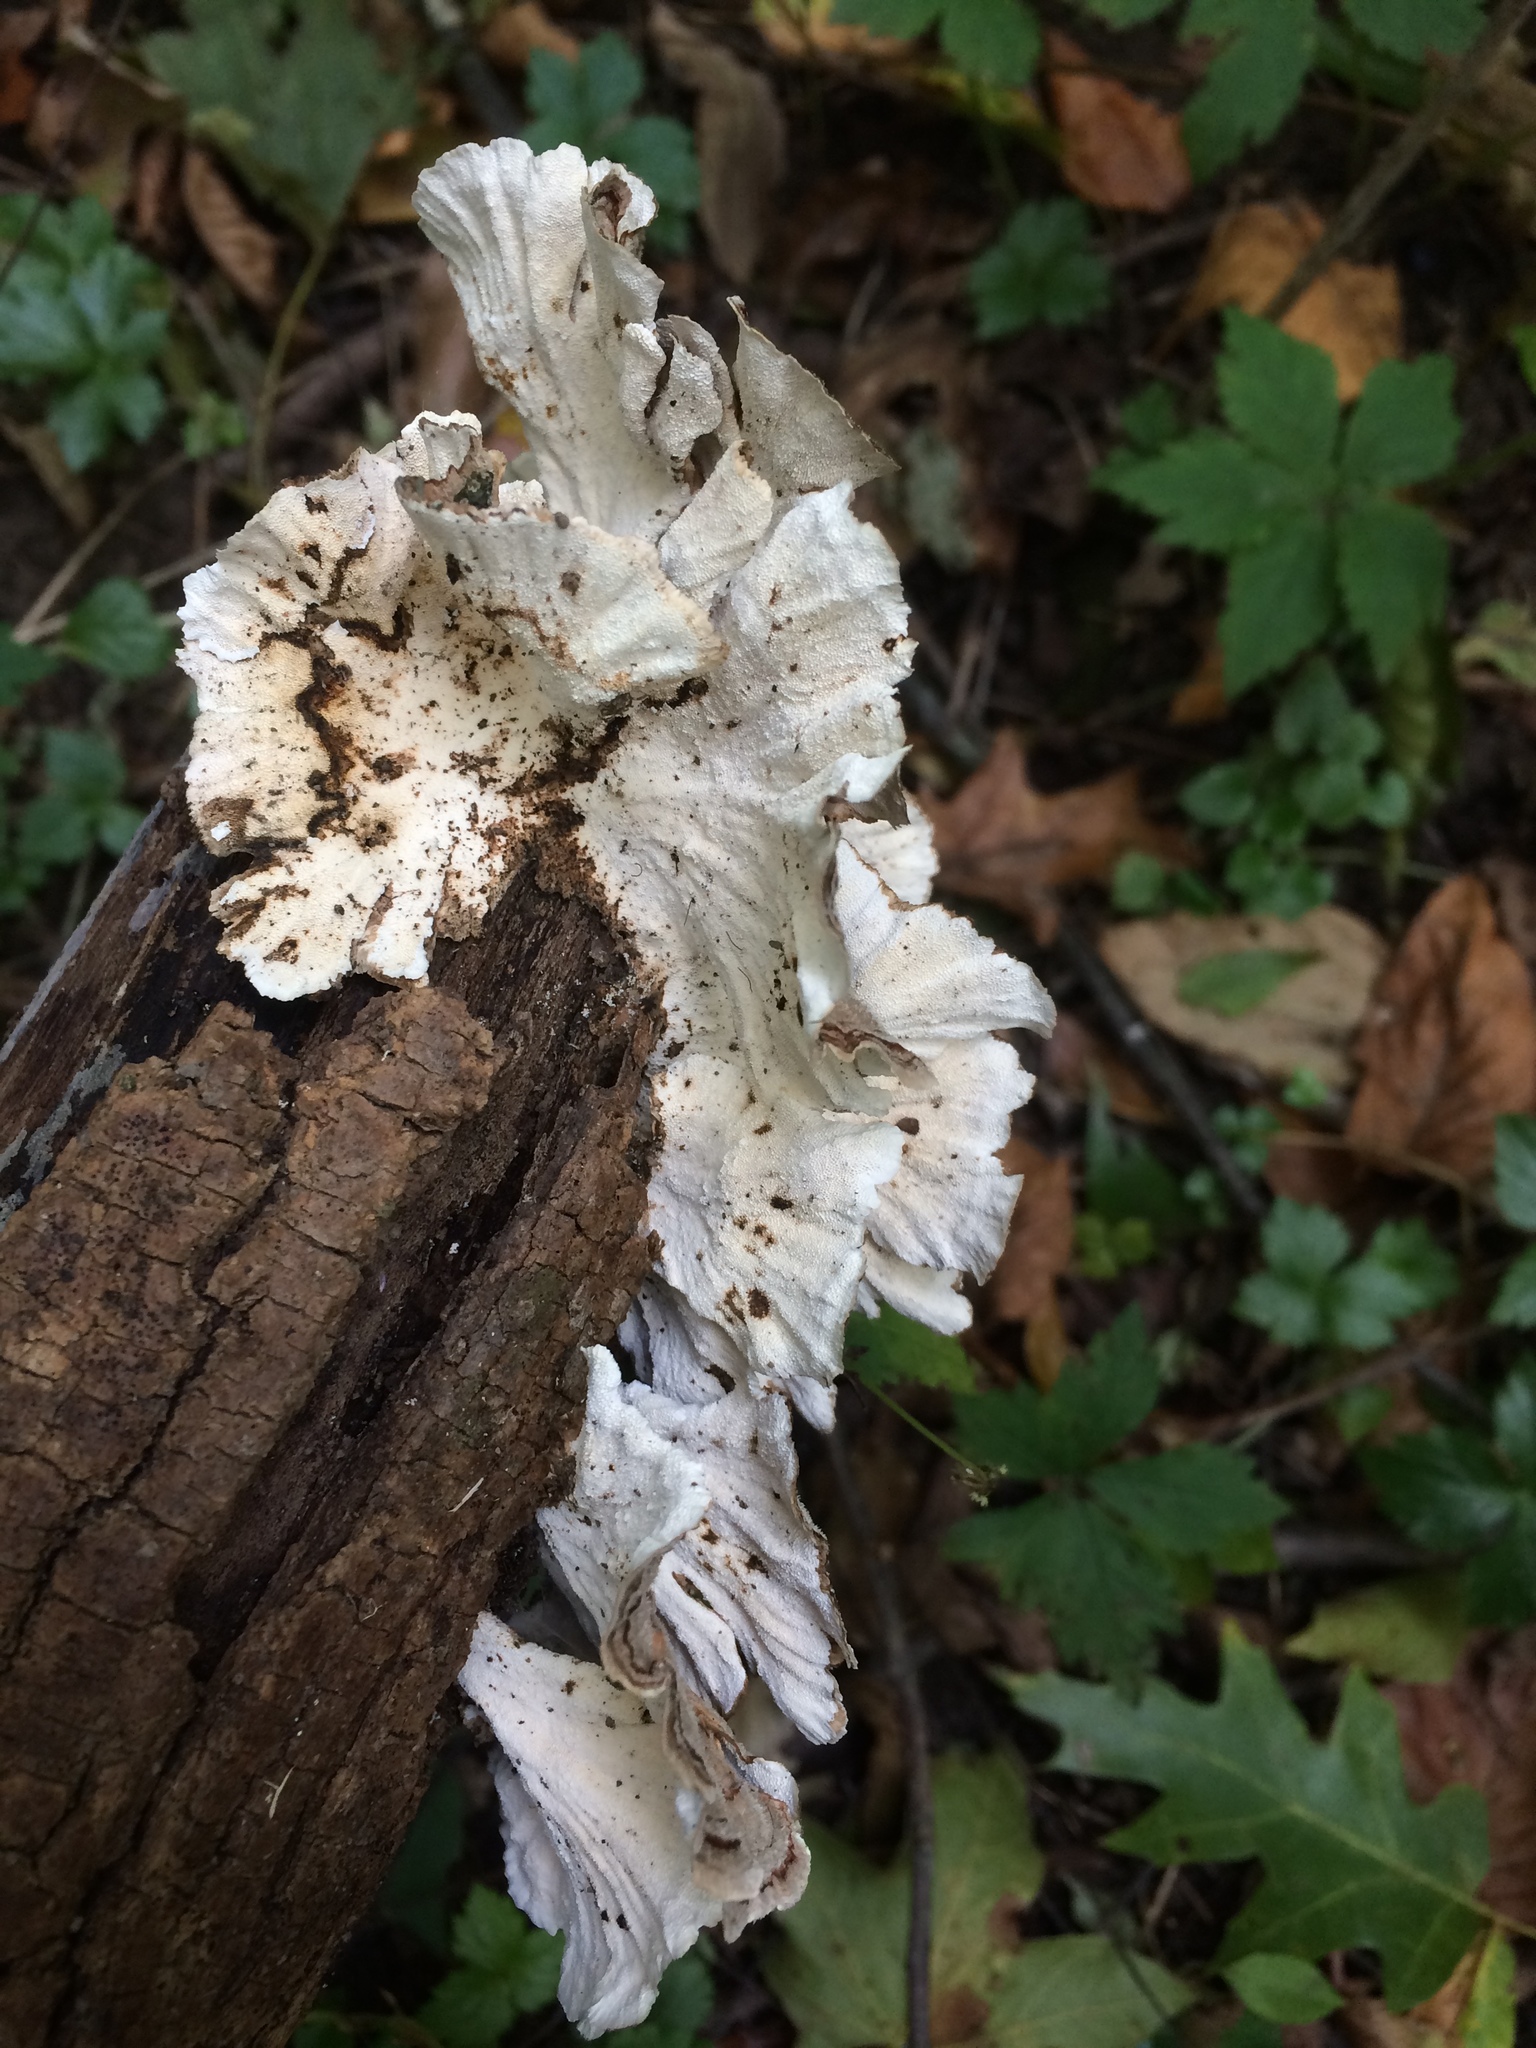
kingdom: Fungi
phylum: Basidiomycota
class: Agaricomycetes
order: Polyporales
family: Polyporaceae
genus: Trametes
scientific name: Trametes versicolor
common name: Turkeytail
